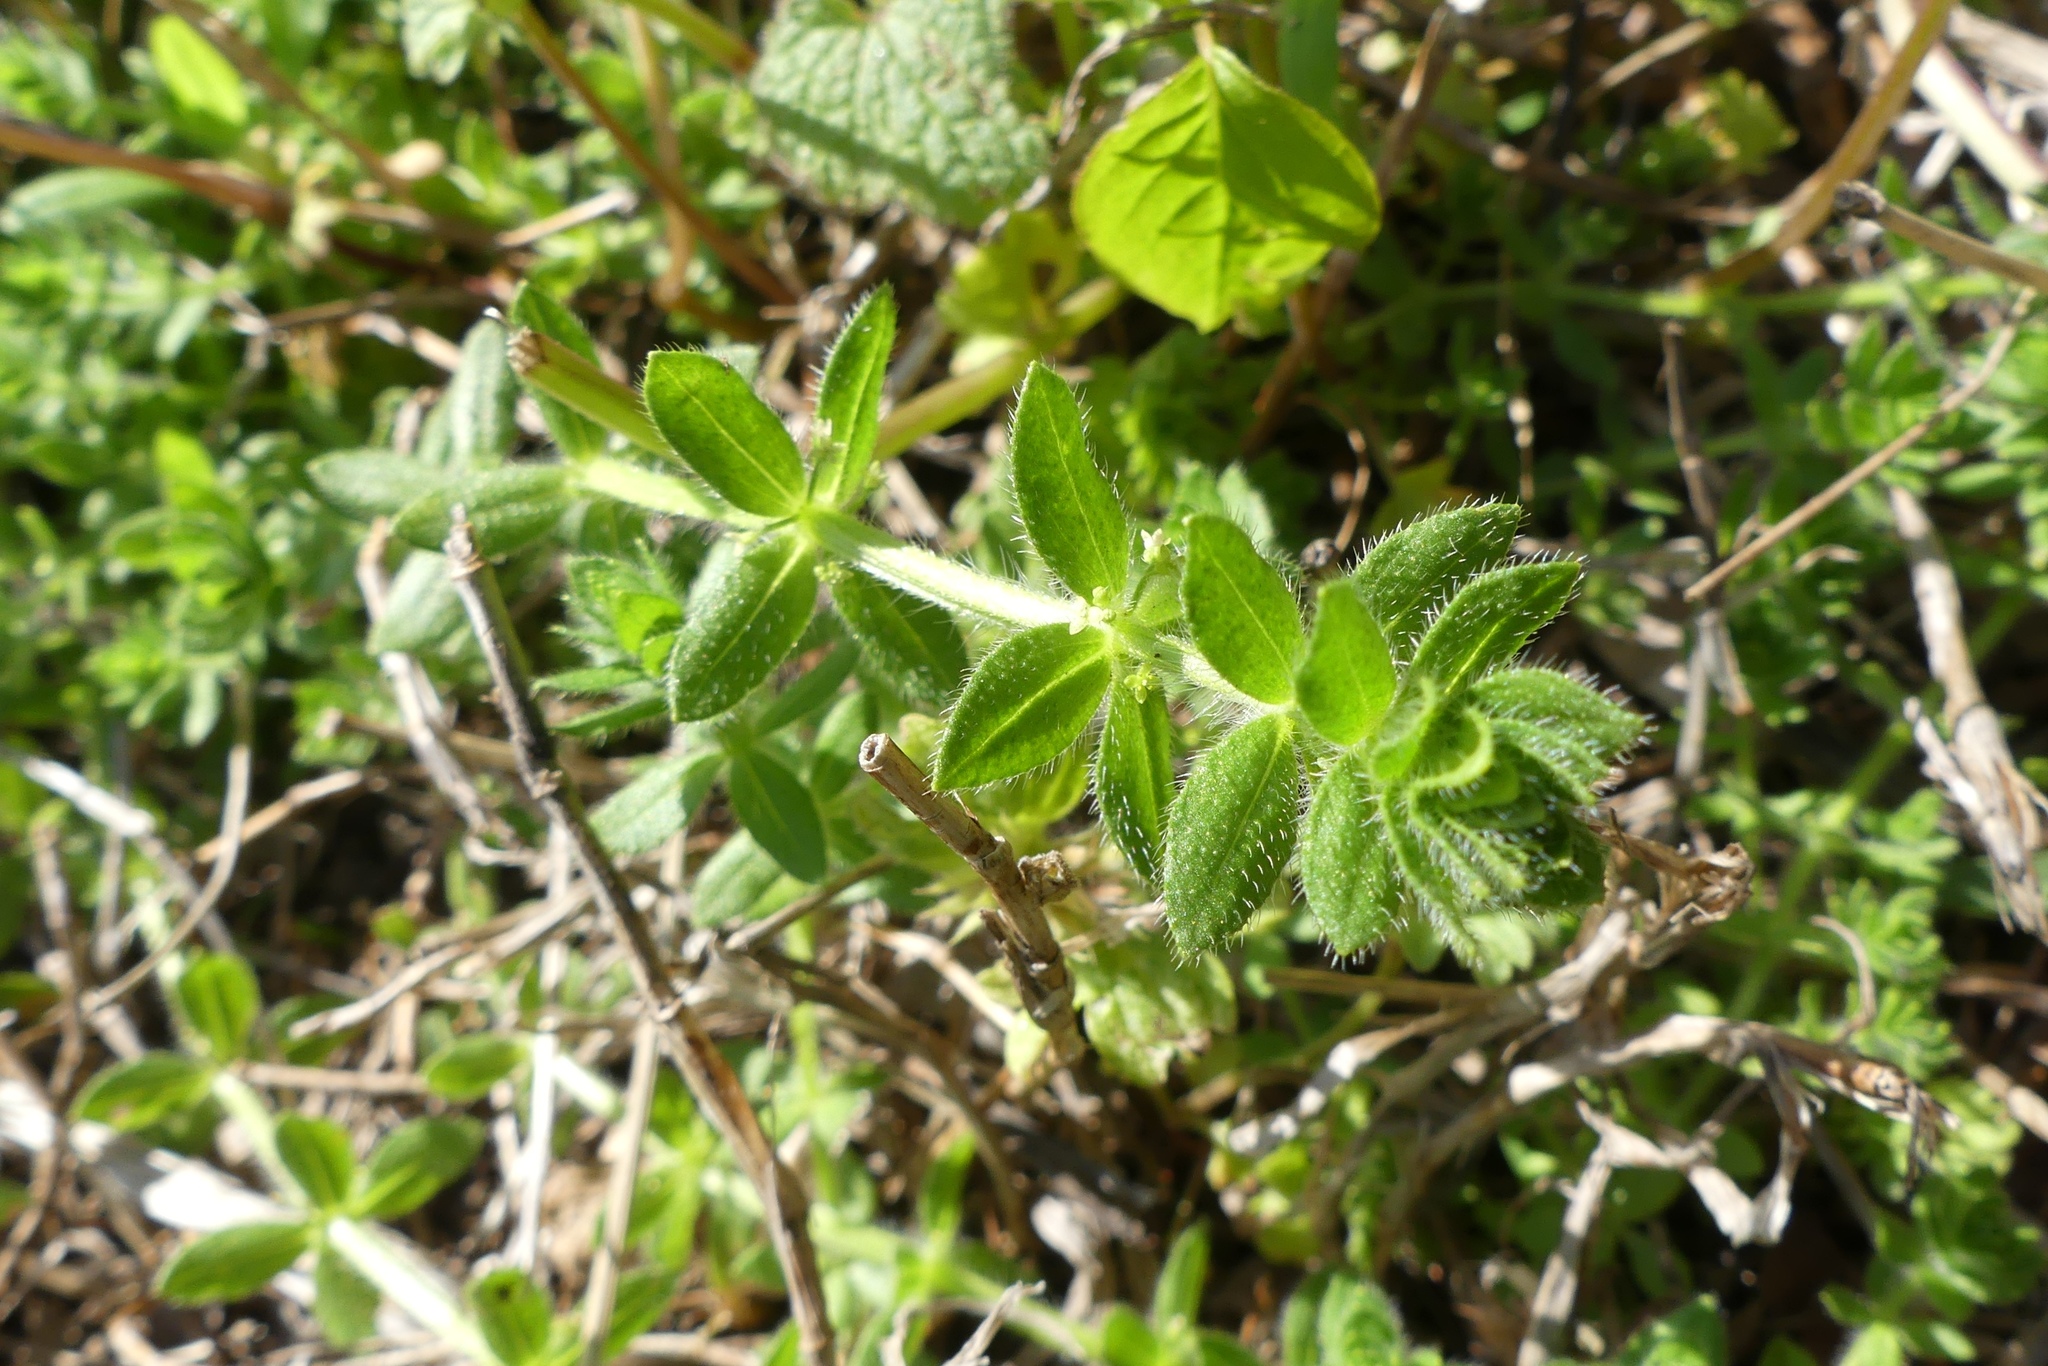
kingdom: Plantae
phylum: Tracheophyta
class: Magnoliopsida
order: Gentianales
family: Rubiaceae
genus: Cruciata
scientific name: Cruciata pedemontana
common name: Piedmont bedstraw
